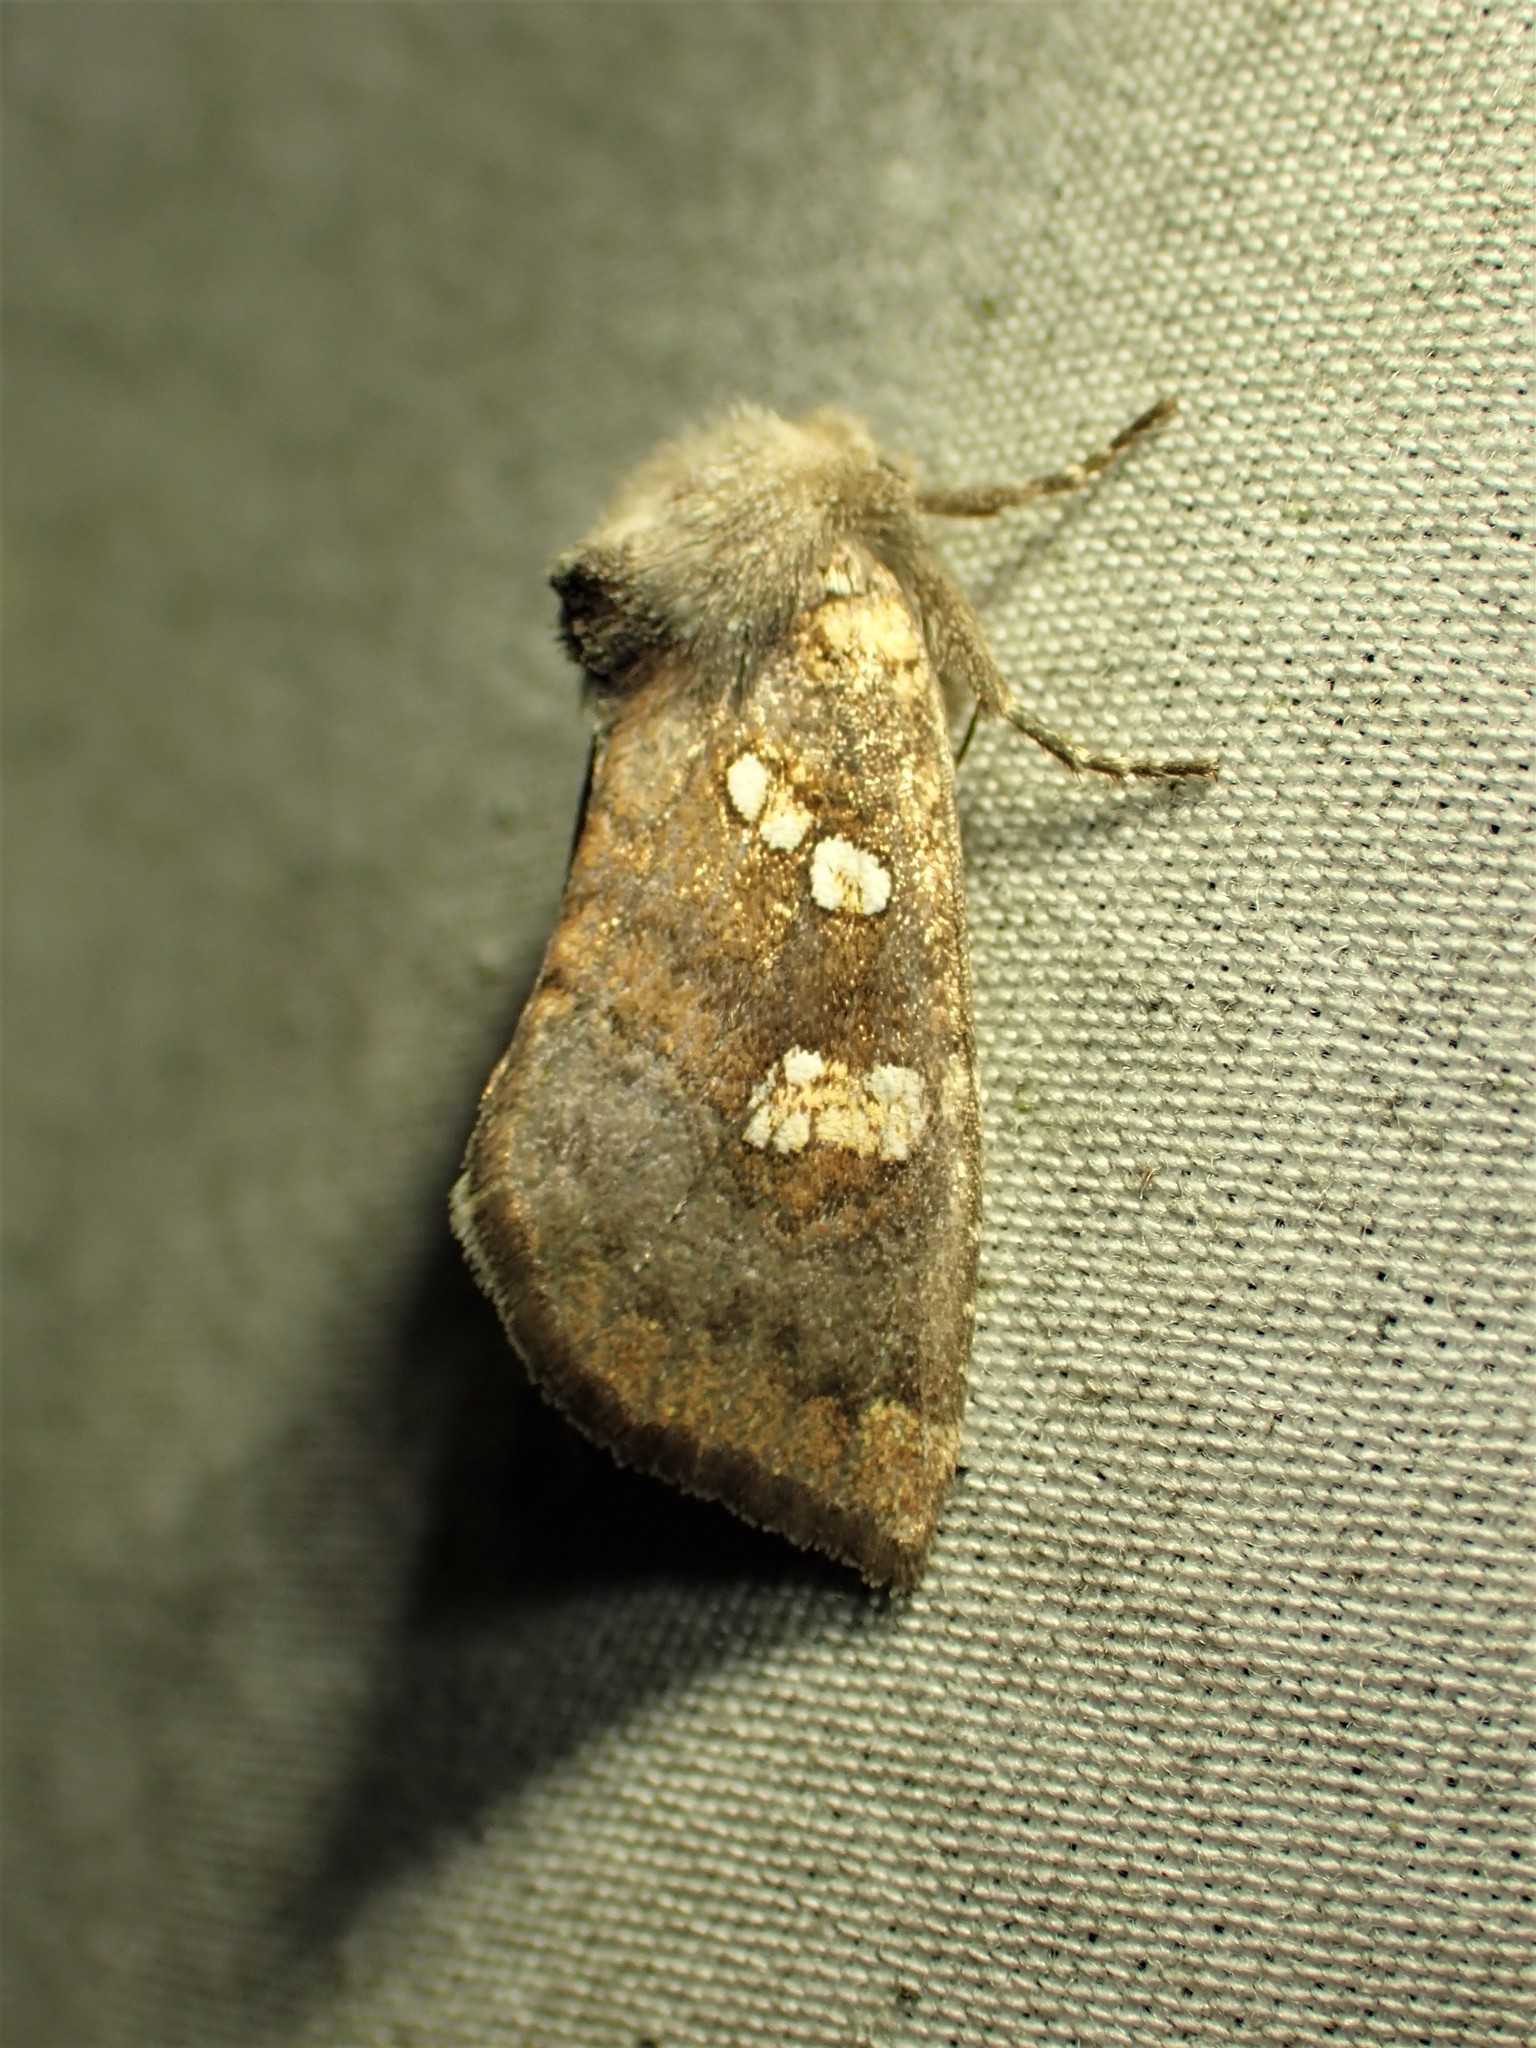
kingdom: Animalia
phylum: Arthropoda
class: Insecta
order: Lepidoptera
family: Noctuidae
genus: Papaipema
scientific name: Papaipema unimoda
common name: Meadow rue borer moth
